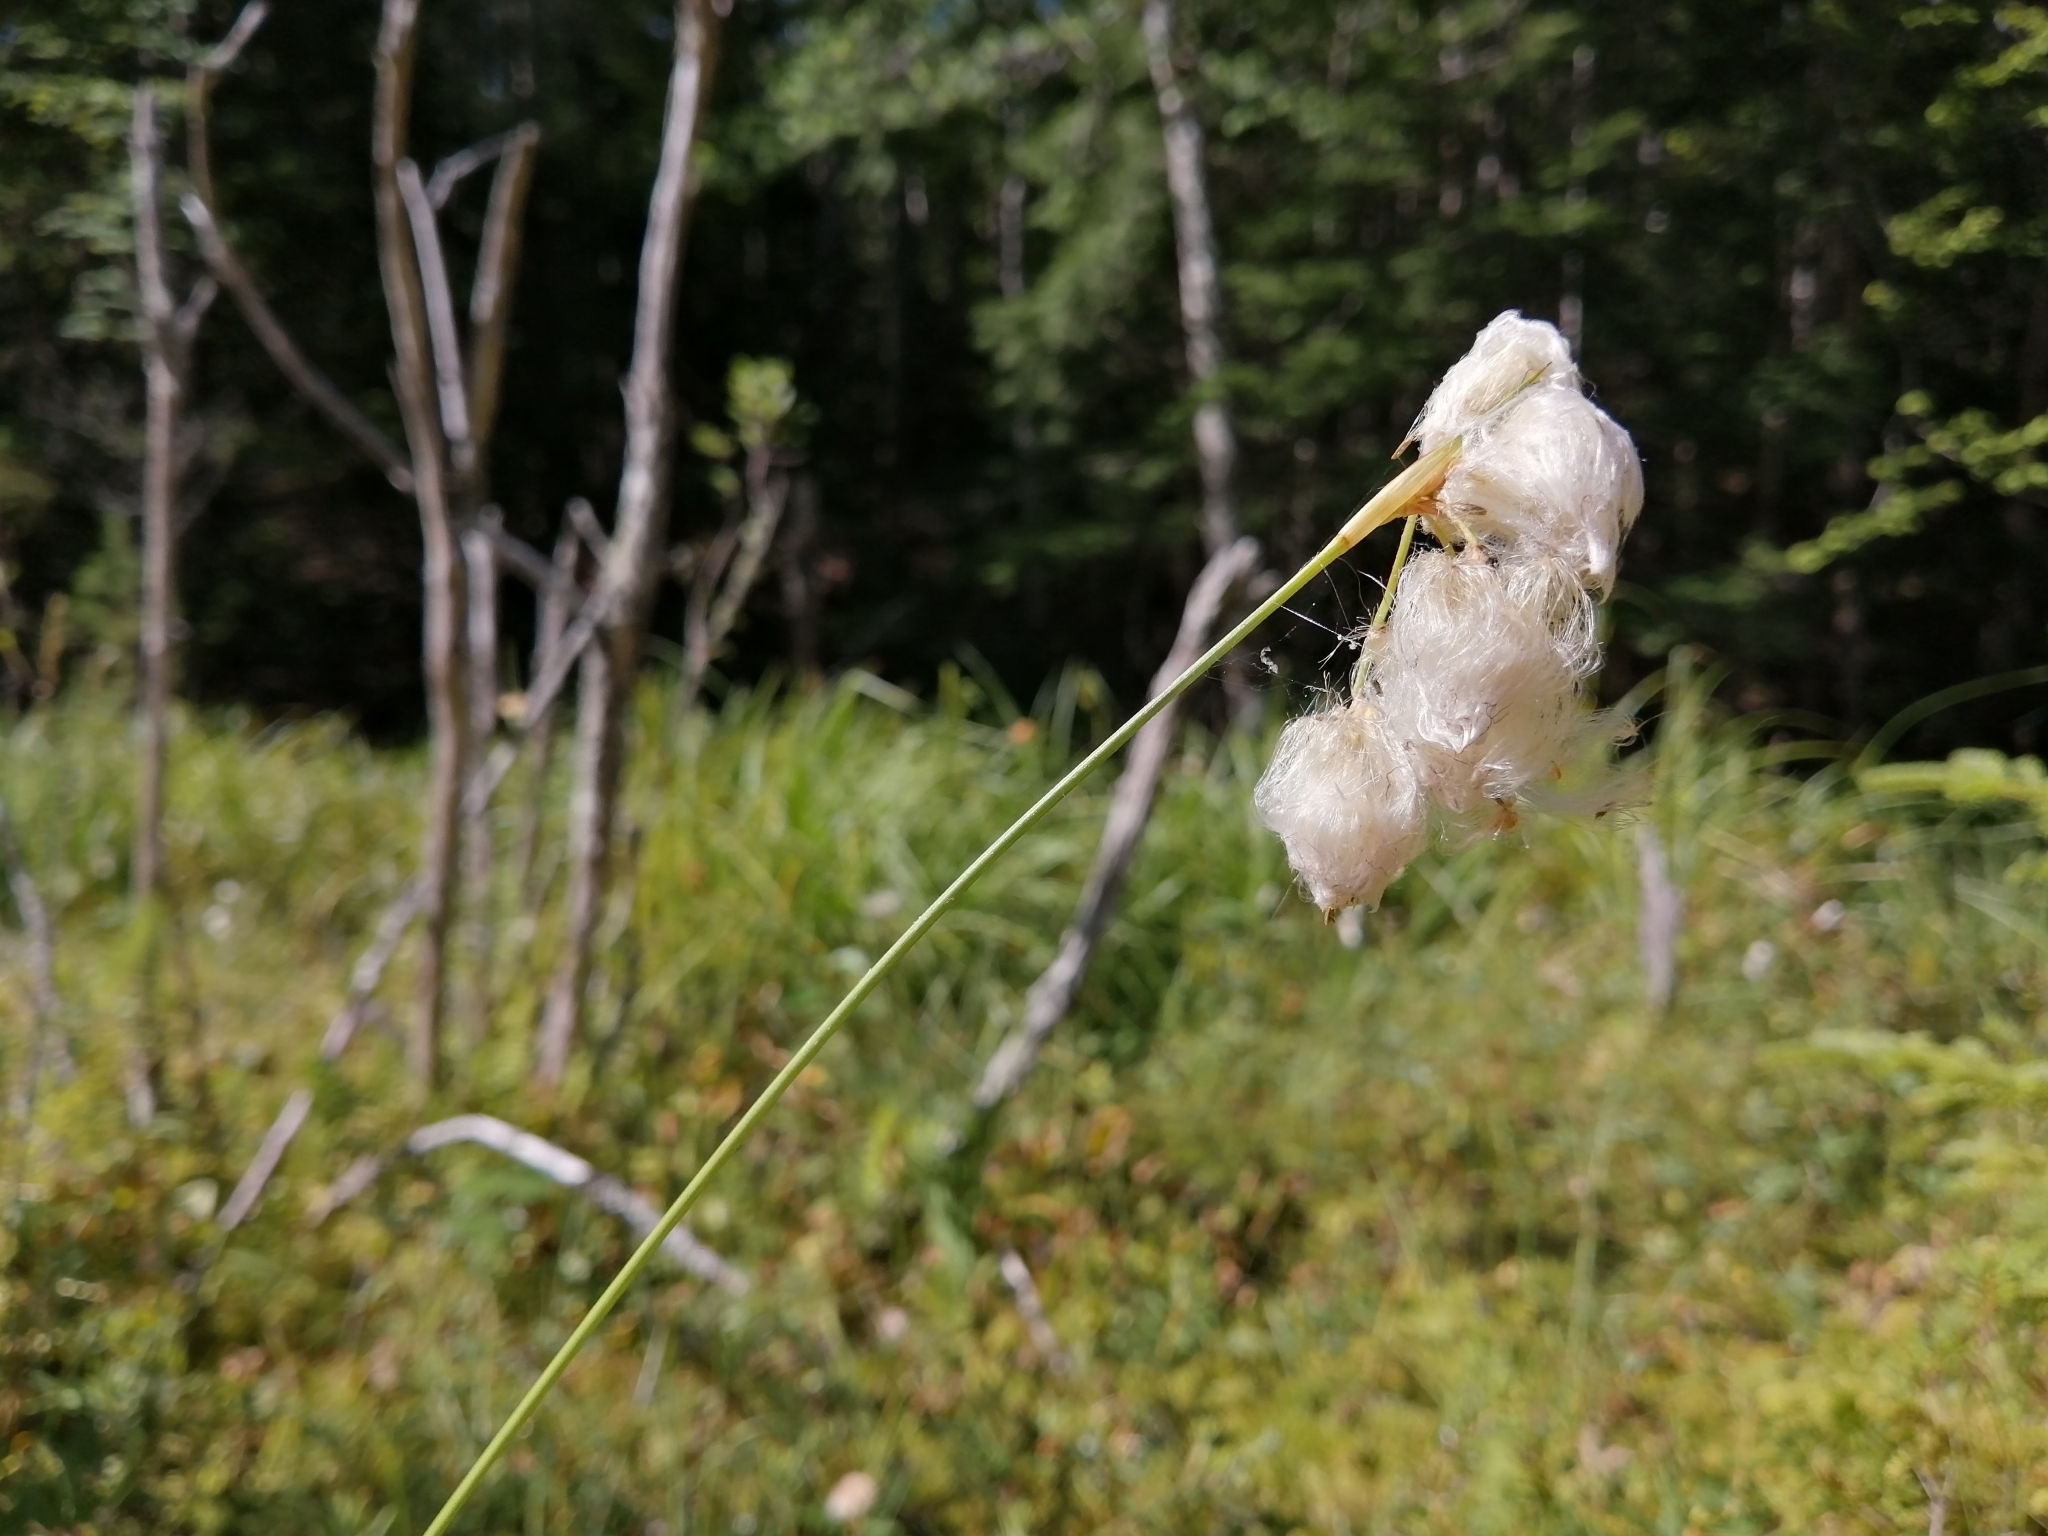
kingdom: Plantae
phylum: Tracheophyta
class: Liliopsida
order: Poales
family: Cyperaceae
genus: Eriophorum
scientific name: Eriophorum tenellum
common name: Few-nerved cottongrass
